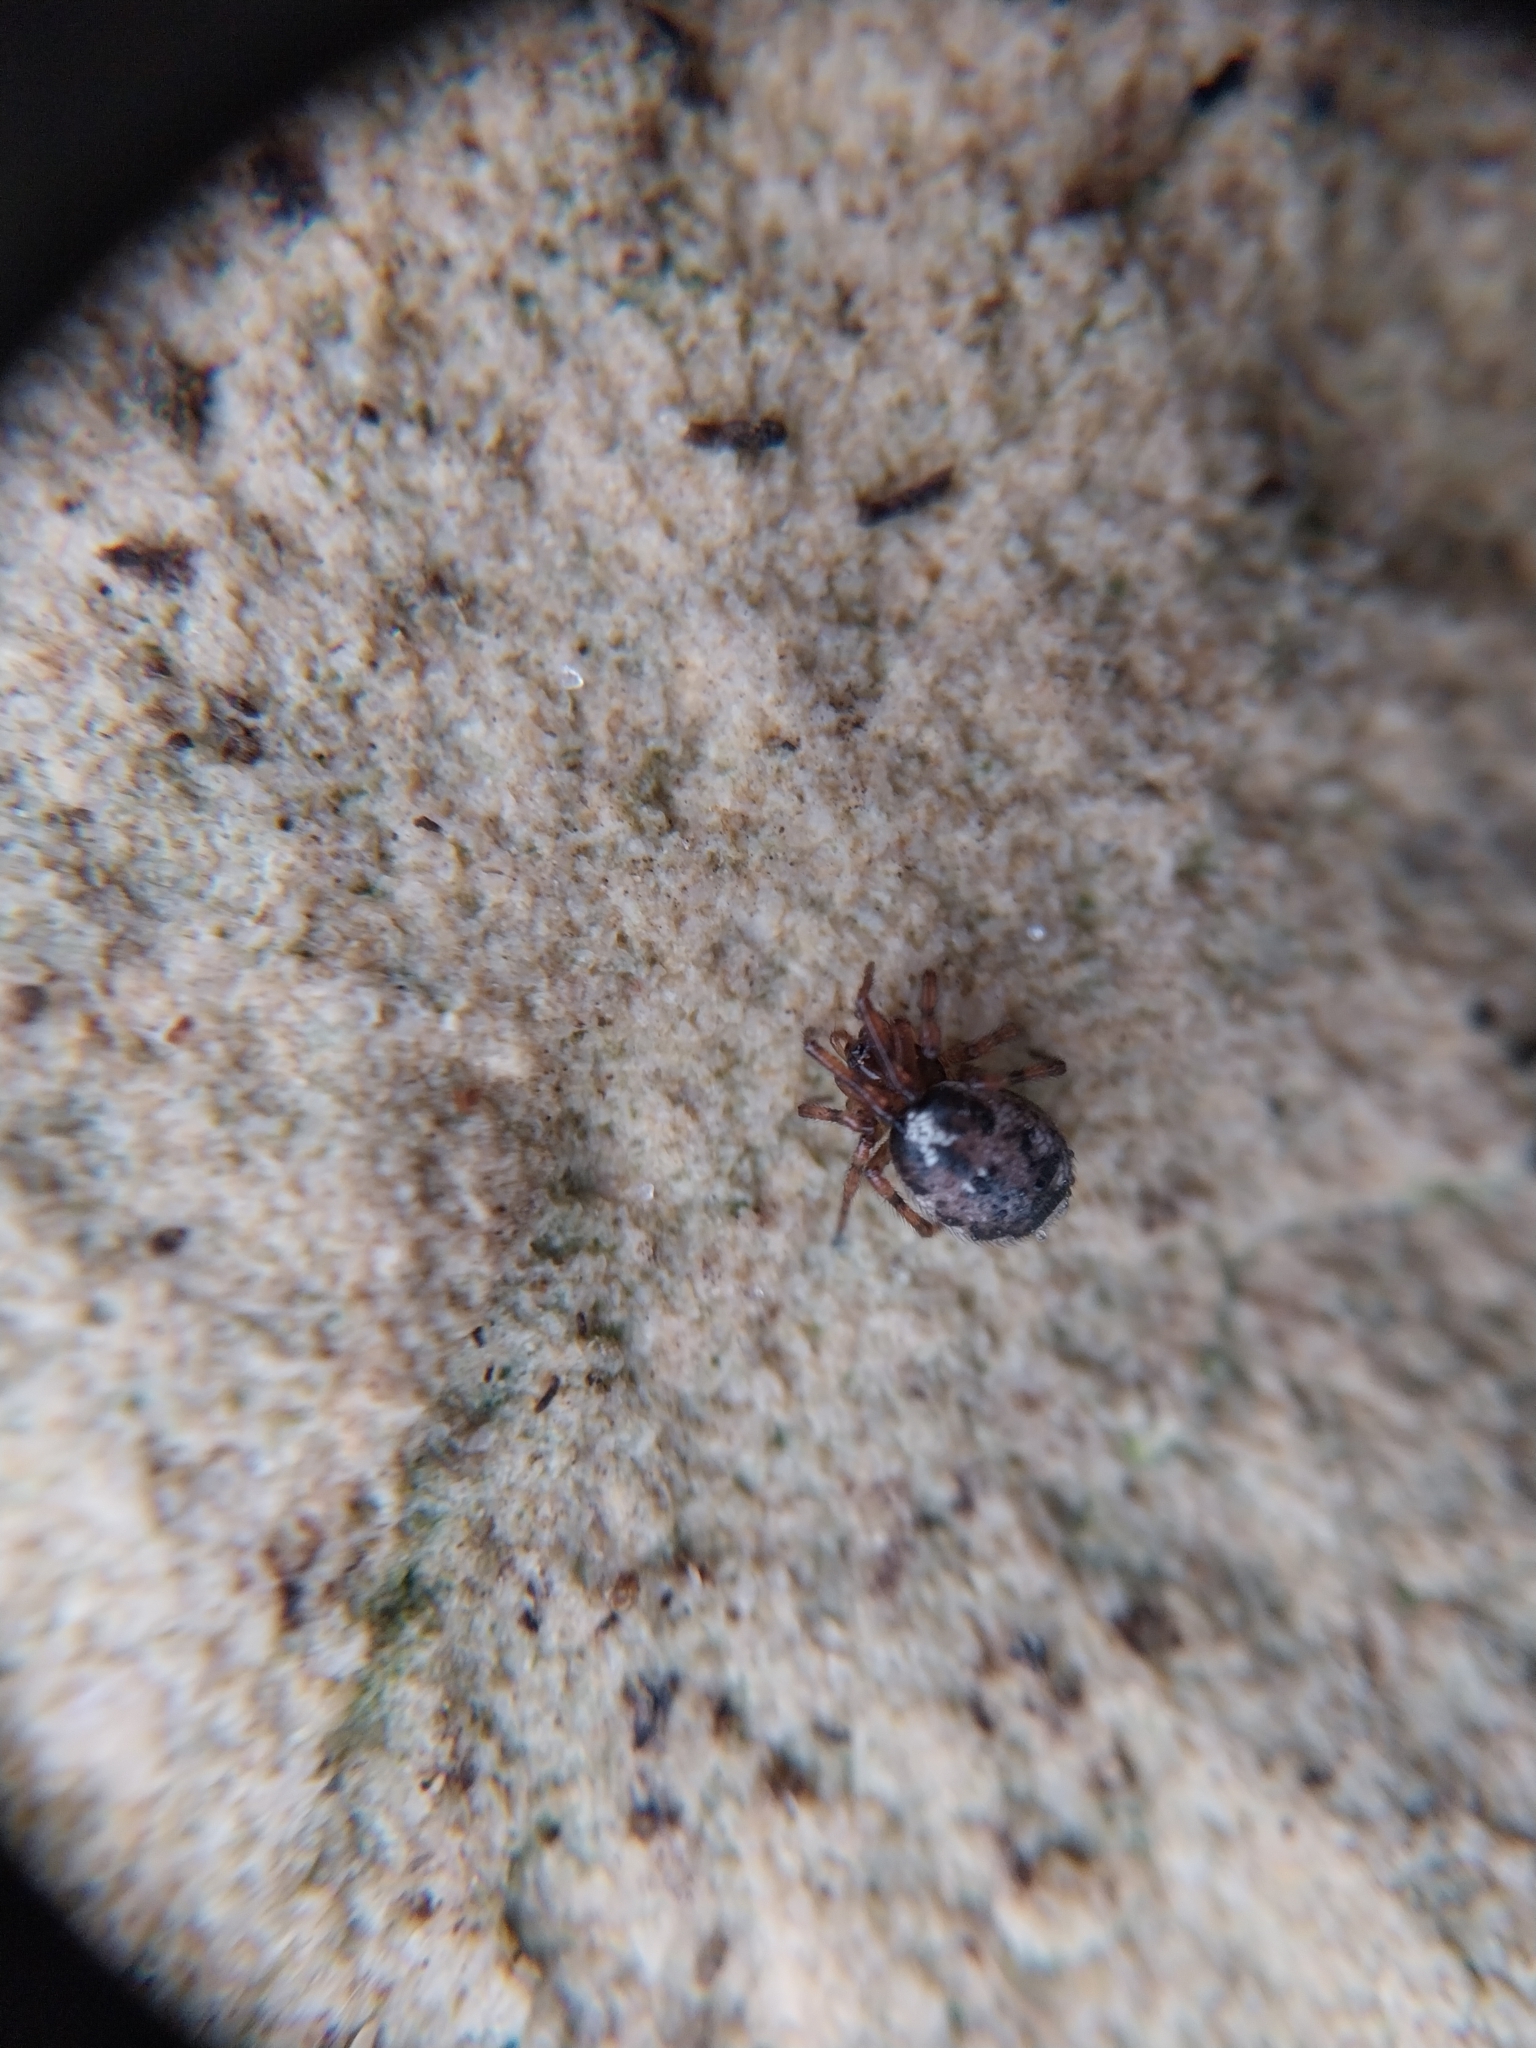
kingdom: Animalia
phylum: Arthropoda
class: Arachnida
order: Araneae
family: Theridiidae
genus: Enoplognatha
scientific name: Enoplognatha
